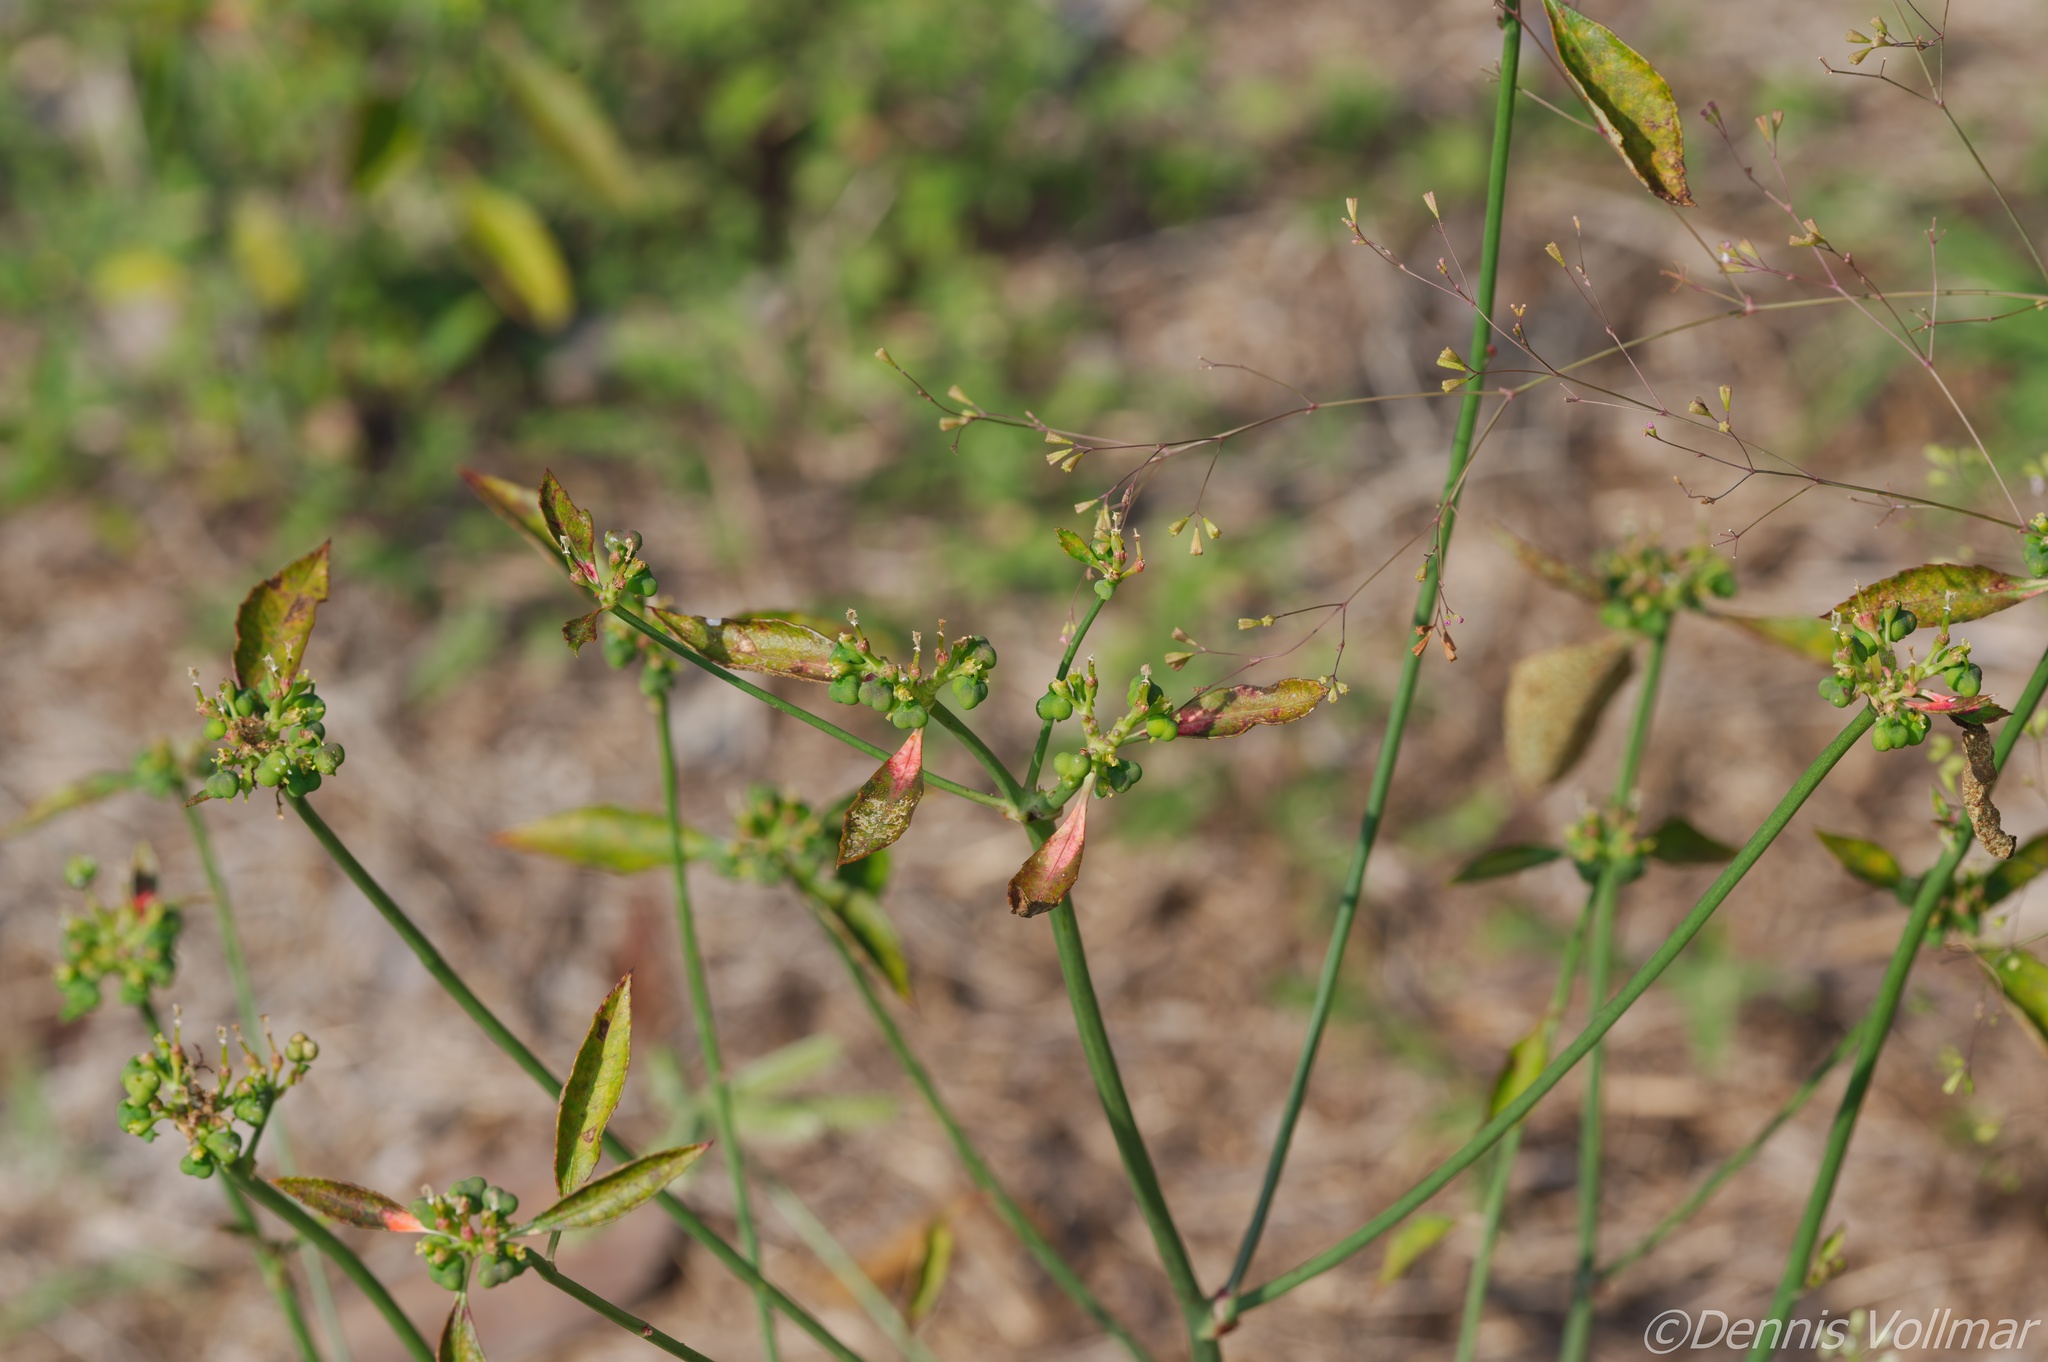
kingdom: Plantae
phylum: Tracheophyta
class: Magnoliopsida
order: Malpighiales
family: Euphorbiaceae
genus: Euphorbia
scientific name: Euphorbia heterophylla
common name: Mexican fireplant
